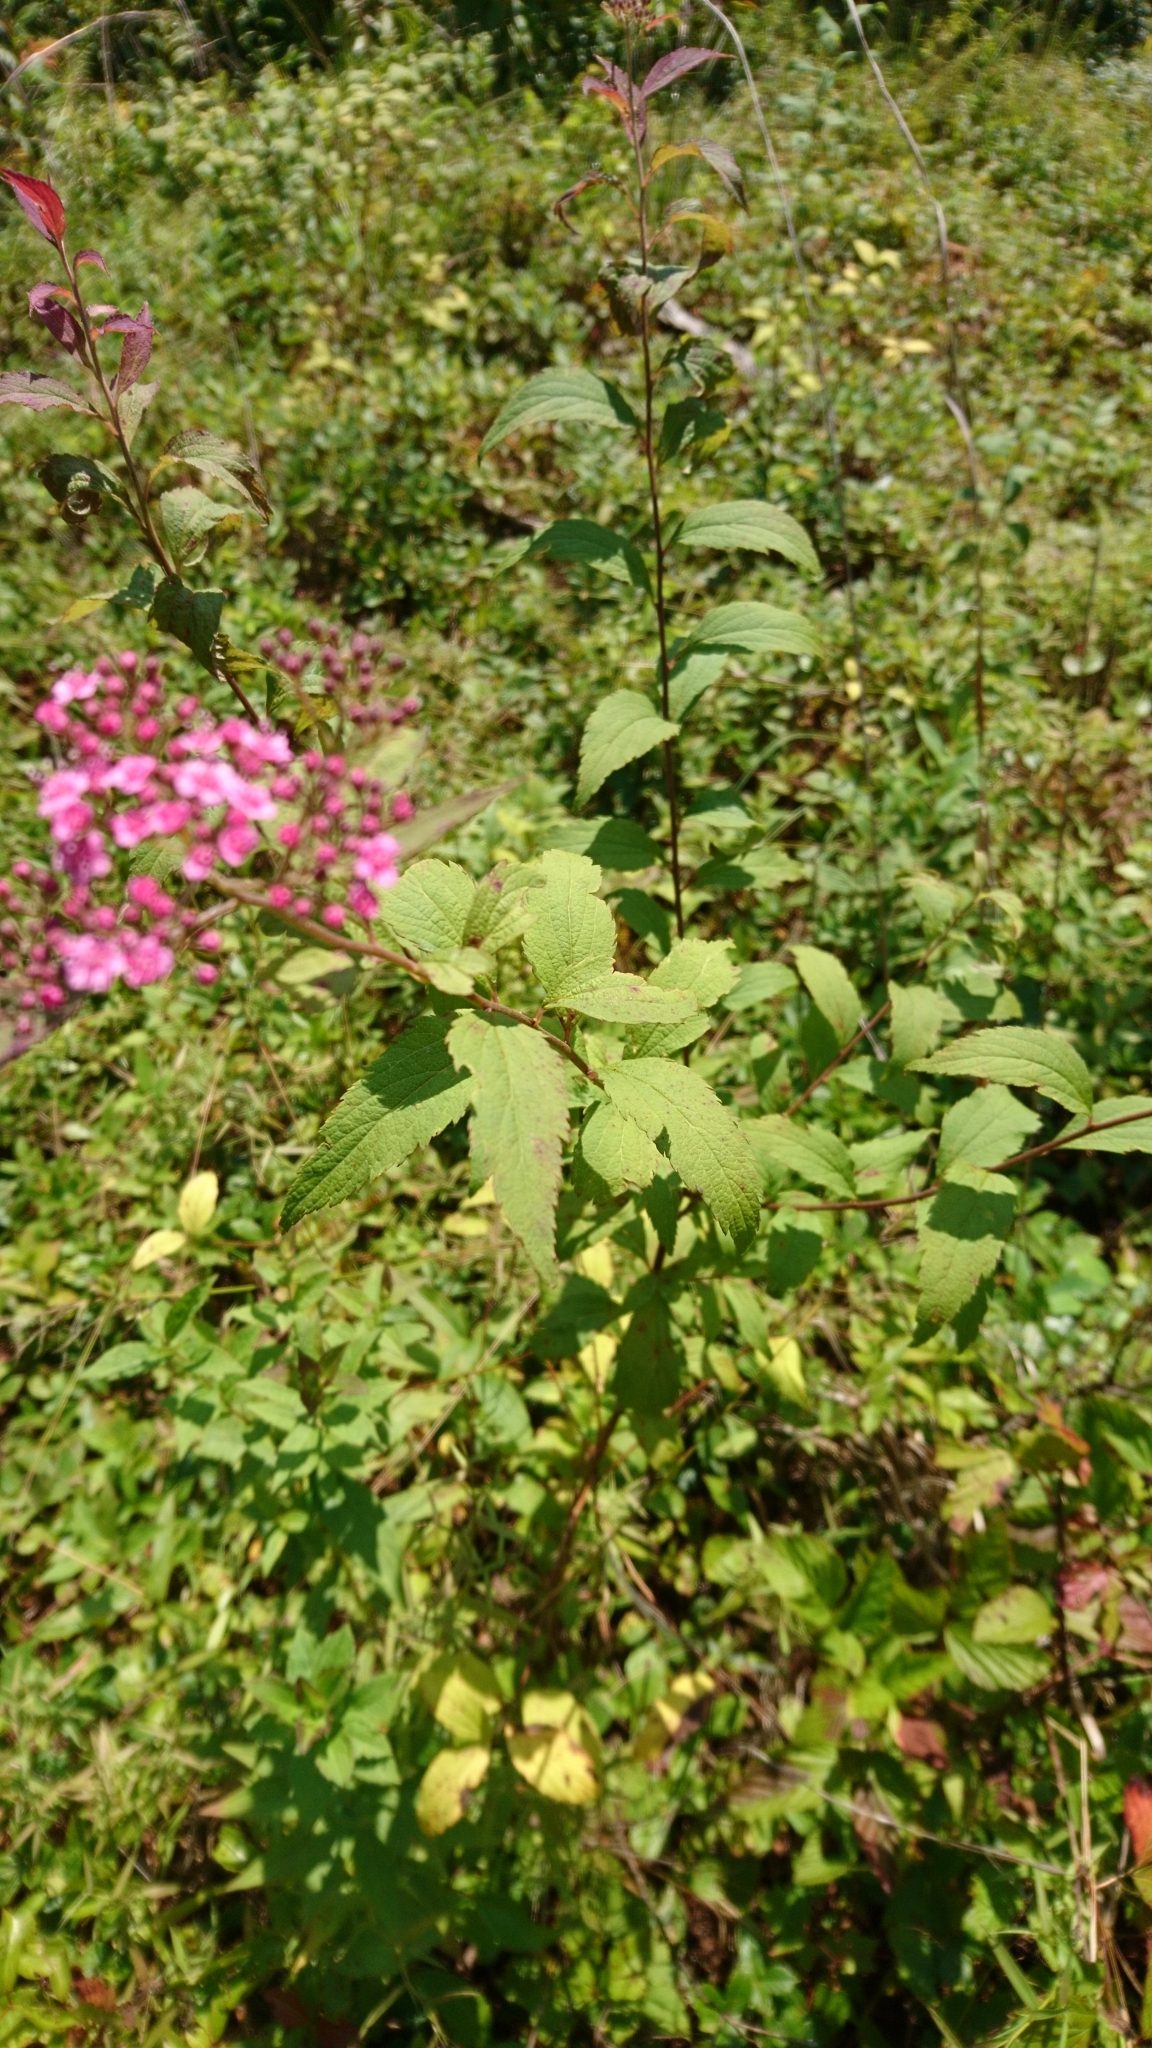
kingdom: Plantae
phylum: Tracheophyta
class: Magnoliopsida
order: Rosales
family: Rosaceae
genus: Spiraea
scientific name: Spiraea japonica
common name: Japanese spiraea
